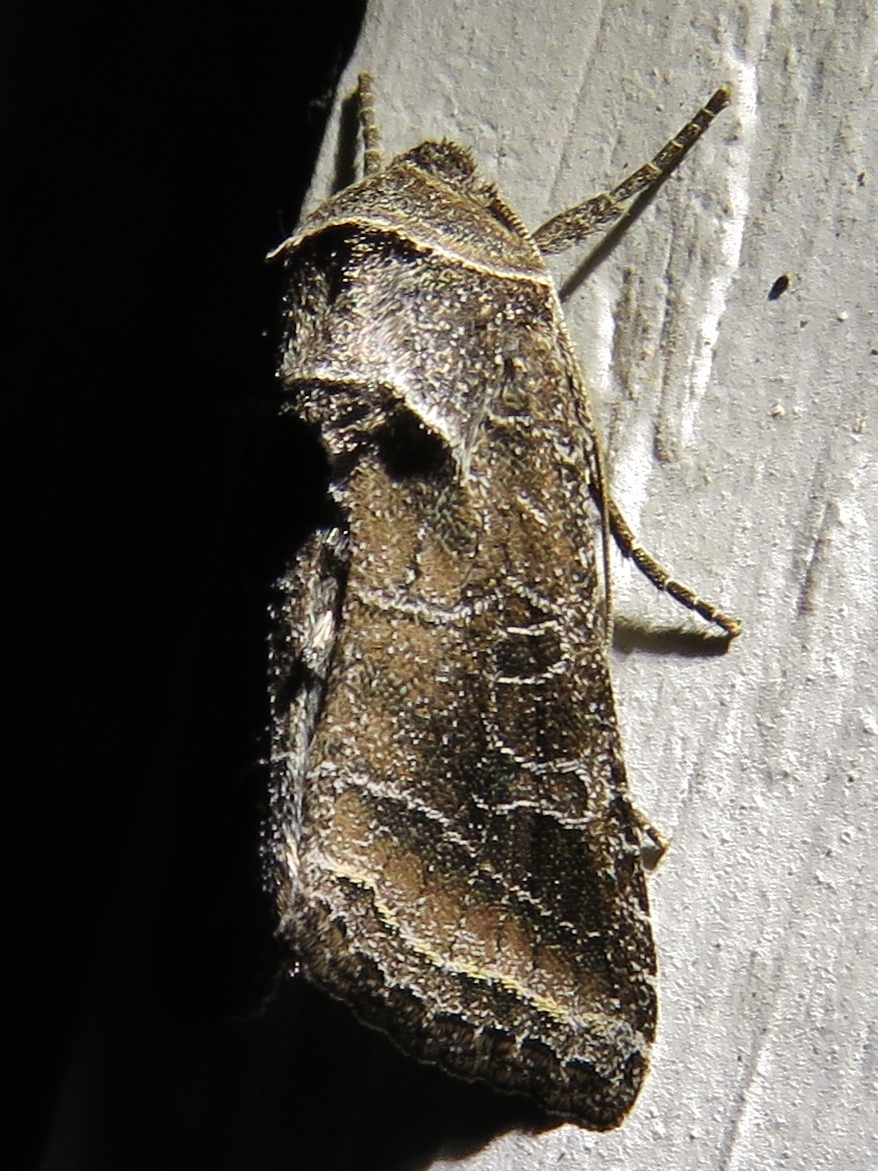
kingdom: Animalia
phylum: Arthropoda
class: Insecta
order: Lepidoptera
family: Noctuidae
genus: Lacinipolia
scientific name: Lacinipolia erecta
